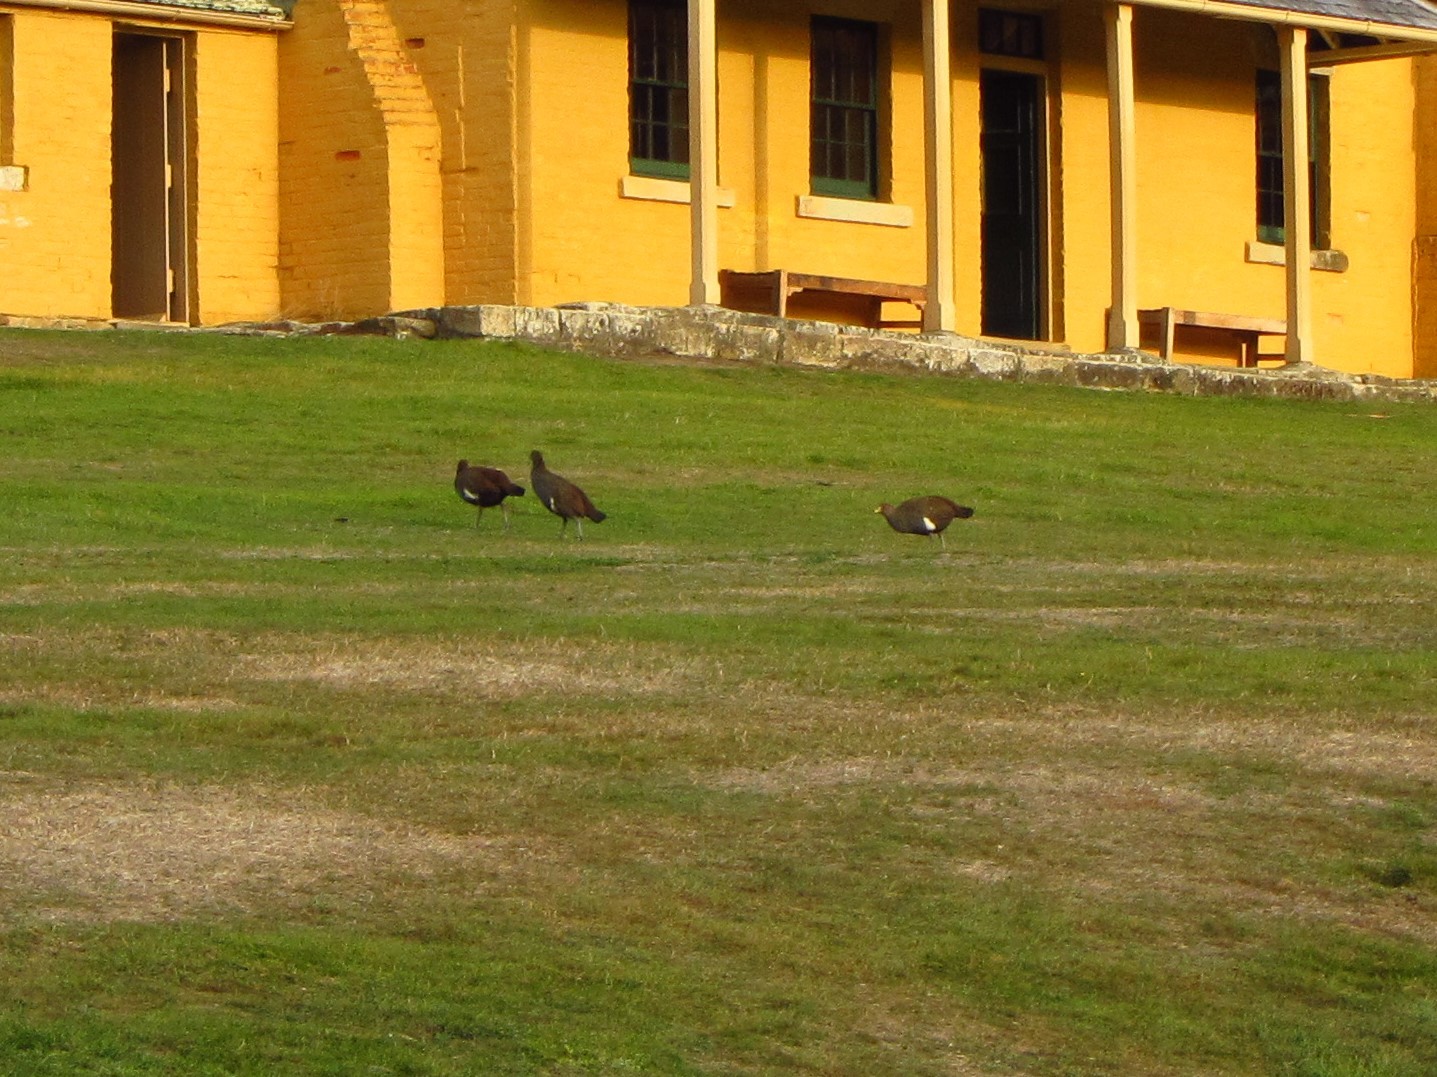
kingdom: Animalia
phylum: Chordata
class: Aves
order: Gruiformes
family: Rallidae
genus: Gallinula
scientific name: Gallinula mortierii
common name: Tasmanian nativehen
